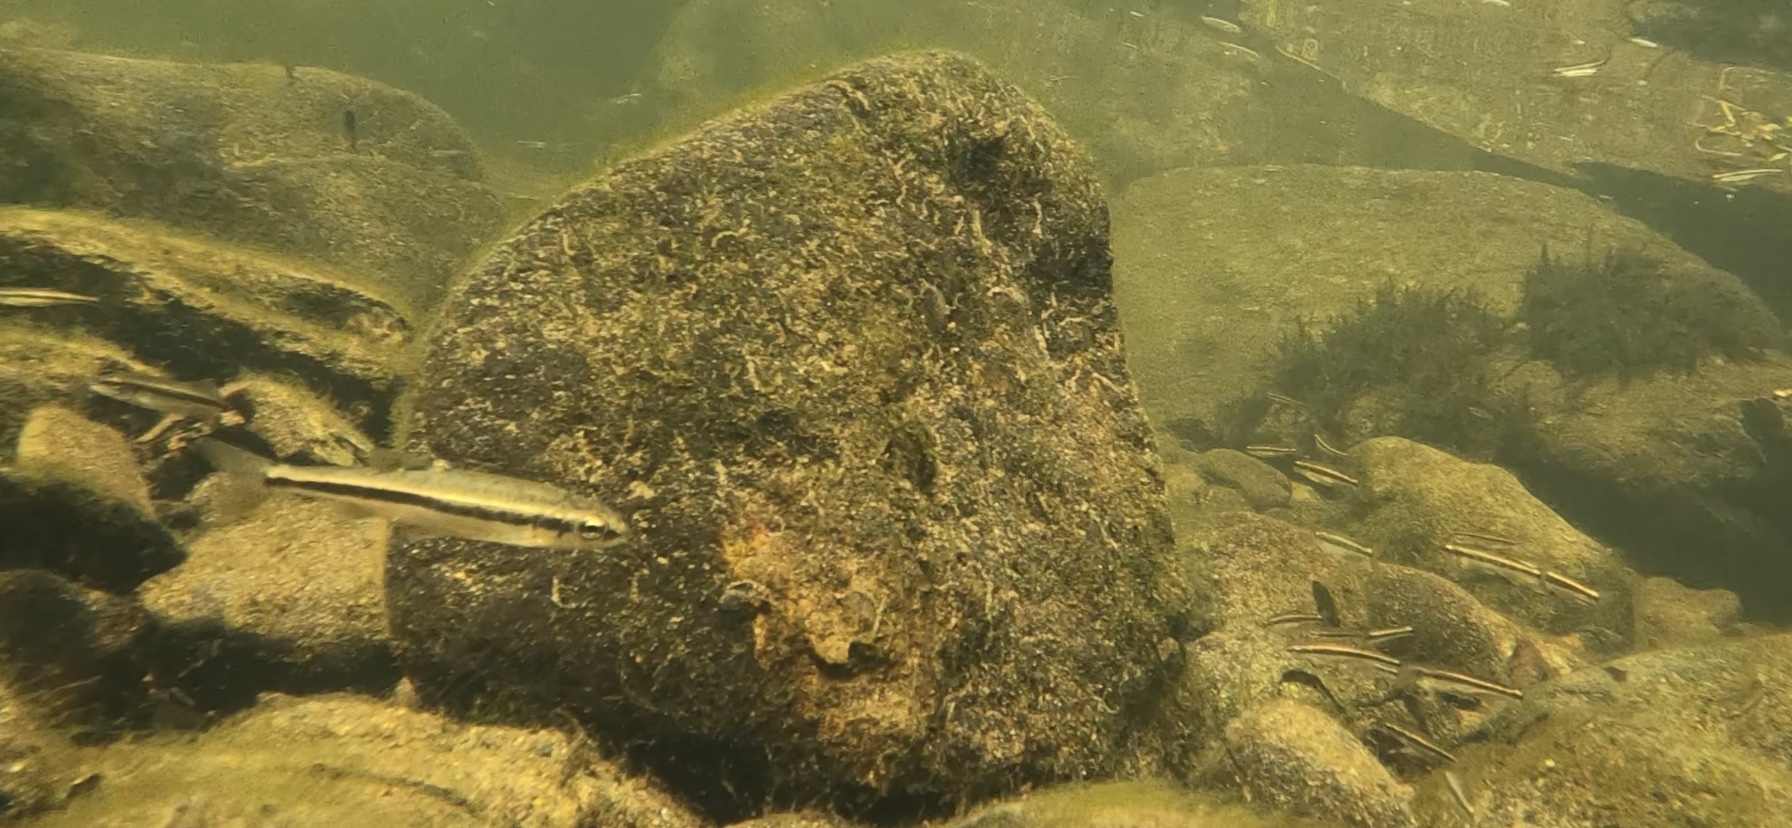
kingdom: Animalia
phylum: Chordata
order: Cypriniformes
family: Cyprinidae
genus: Phoxinus
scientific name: Phoxinus phoxinus
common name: Minnow
